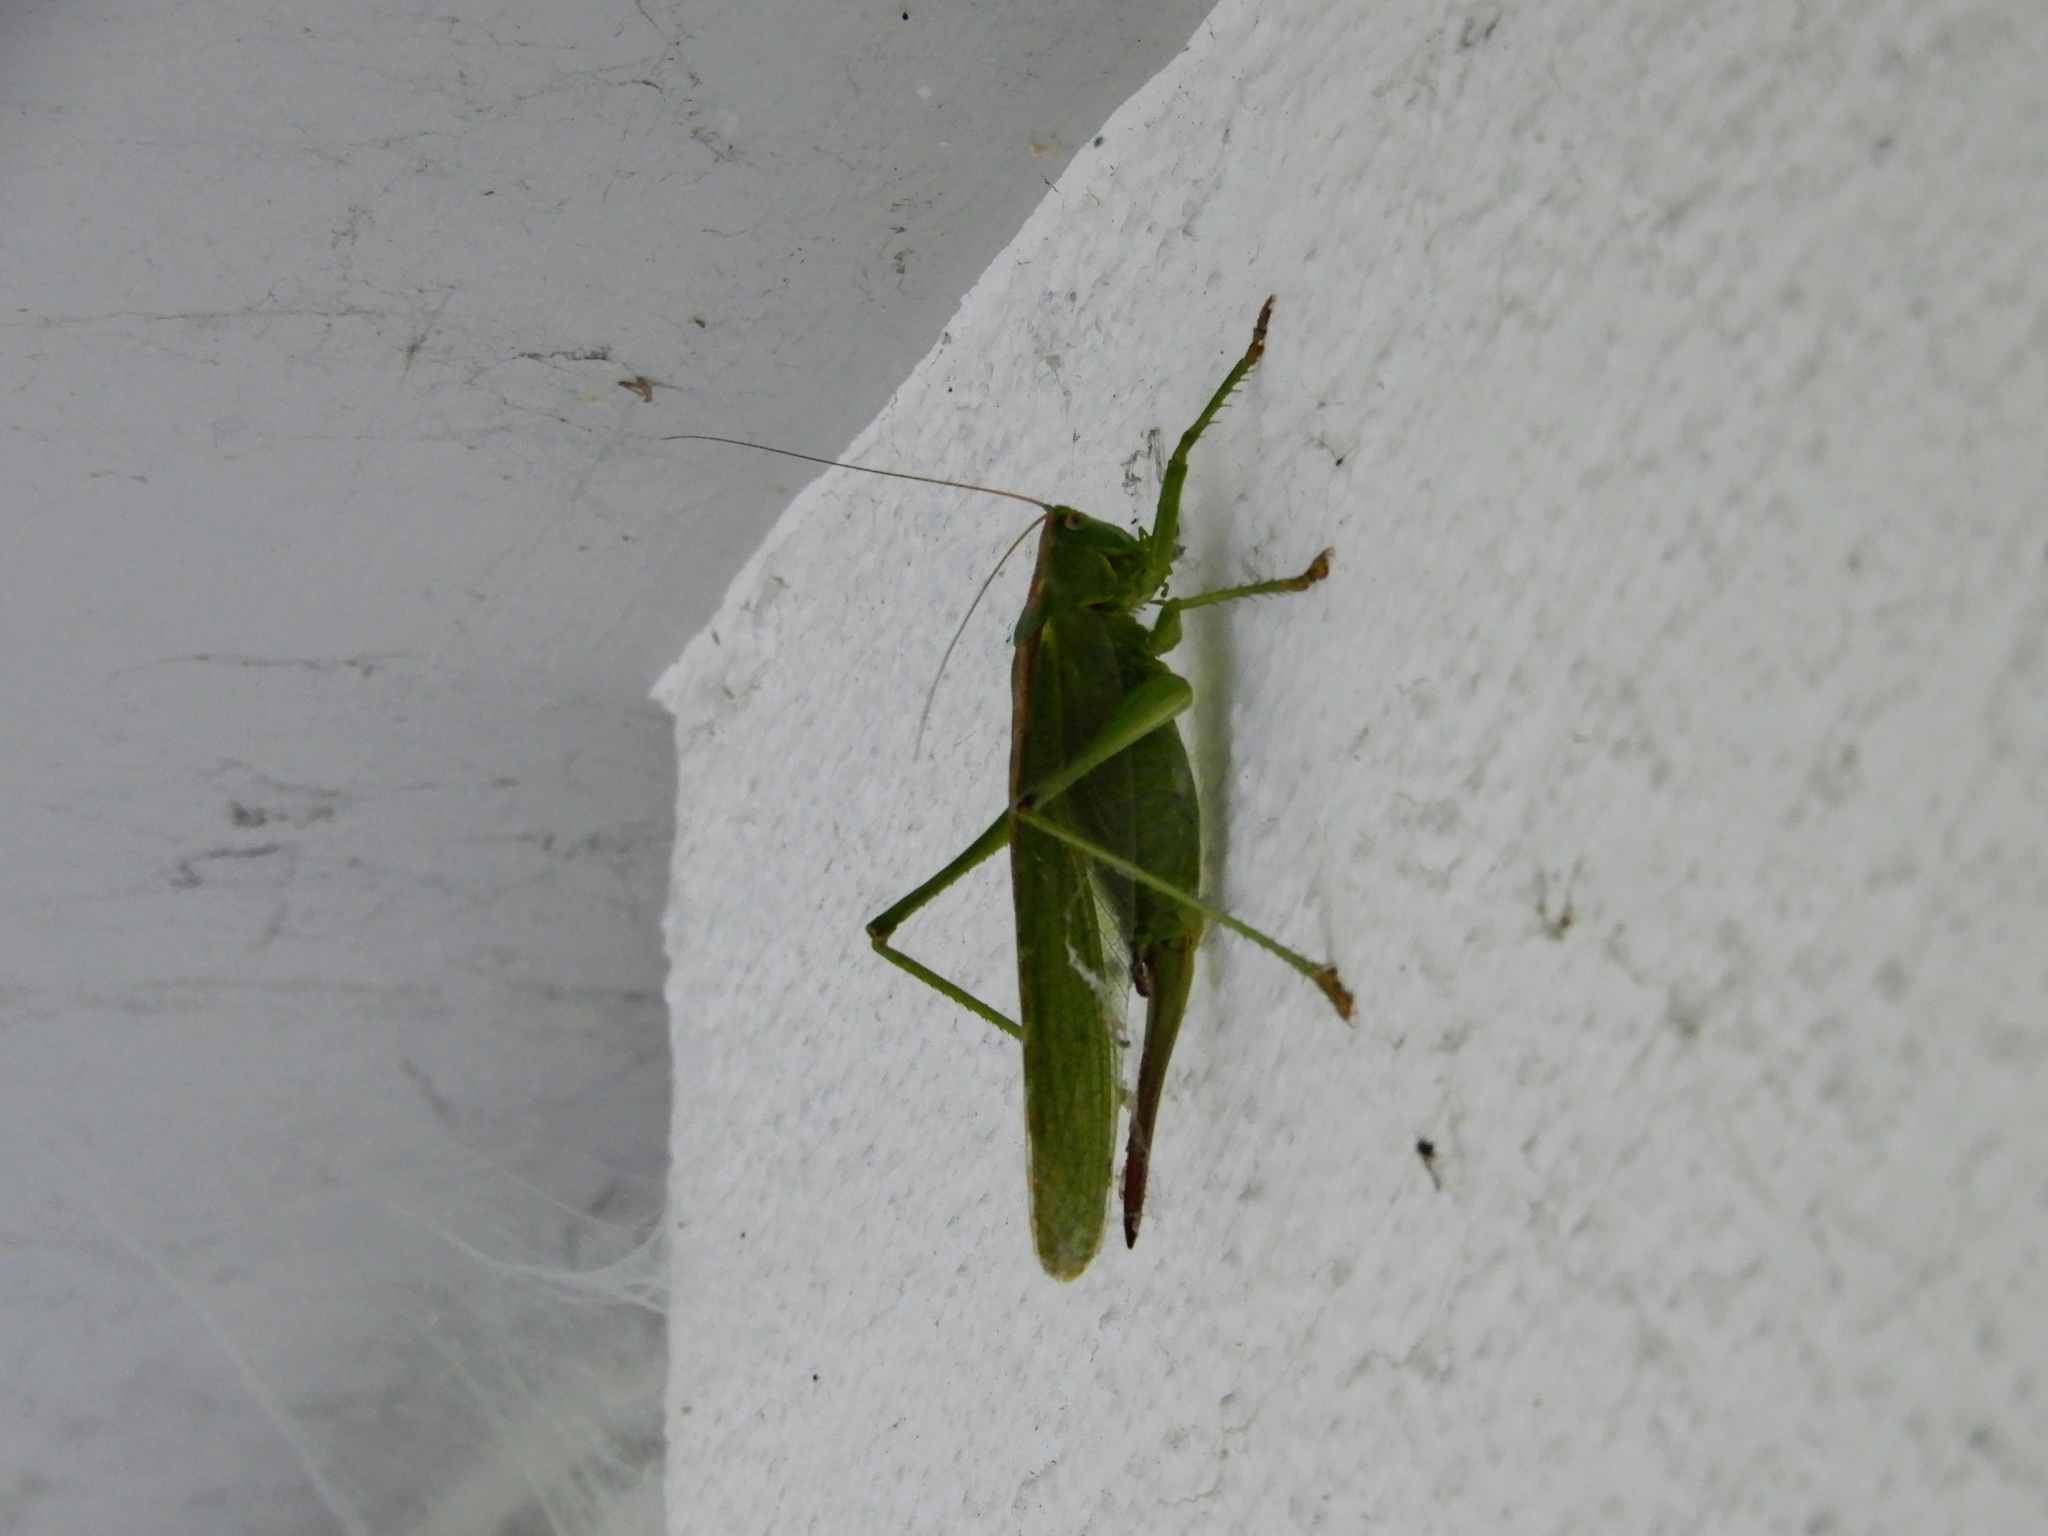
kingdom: Animalia
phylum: Arthropoda
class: Insecta
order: Orthoptera
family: Tettigoniidae
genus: Tettigonia
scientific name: Tettigonia viridissima
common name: Great green bush-cricket
